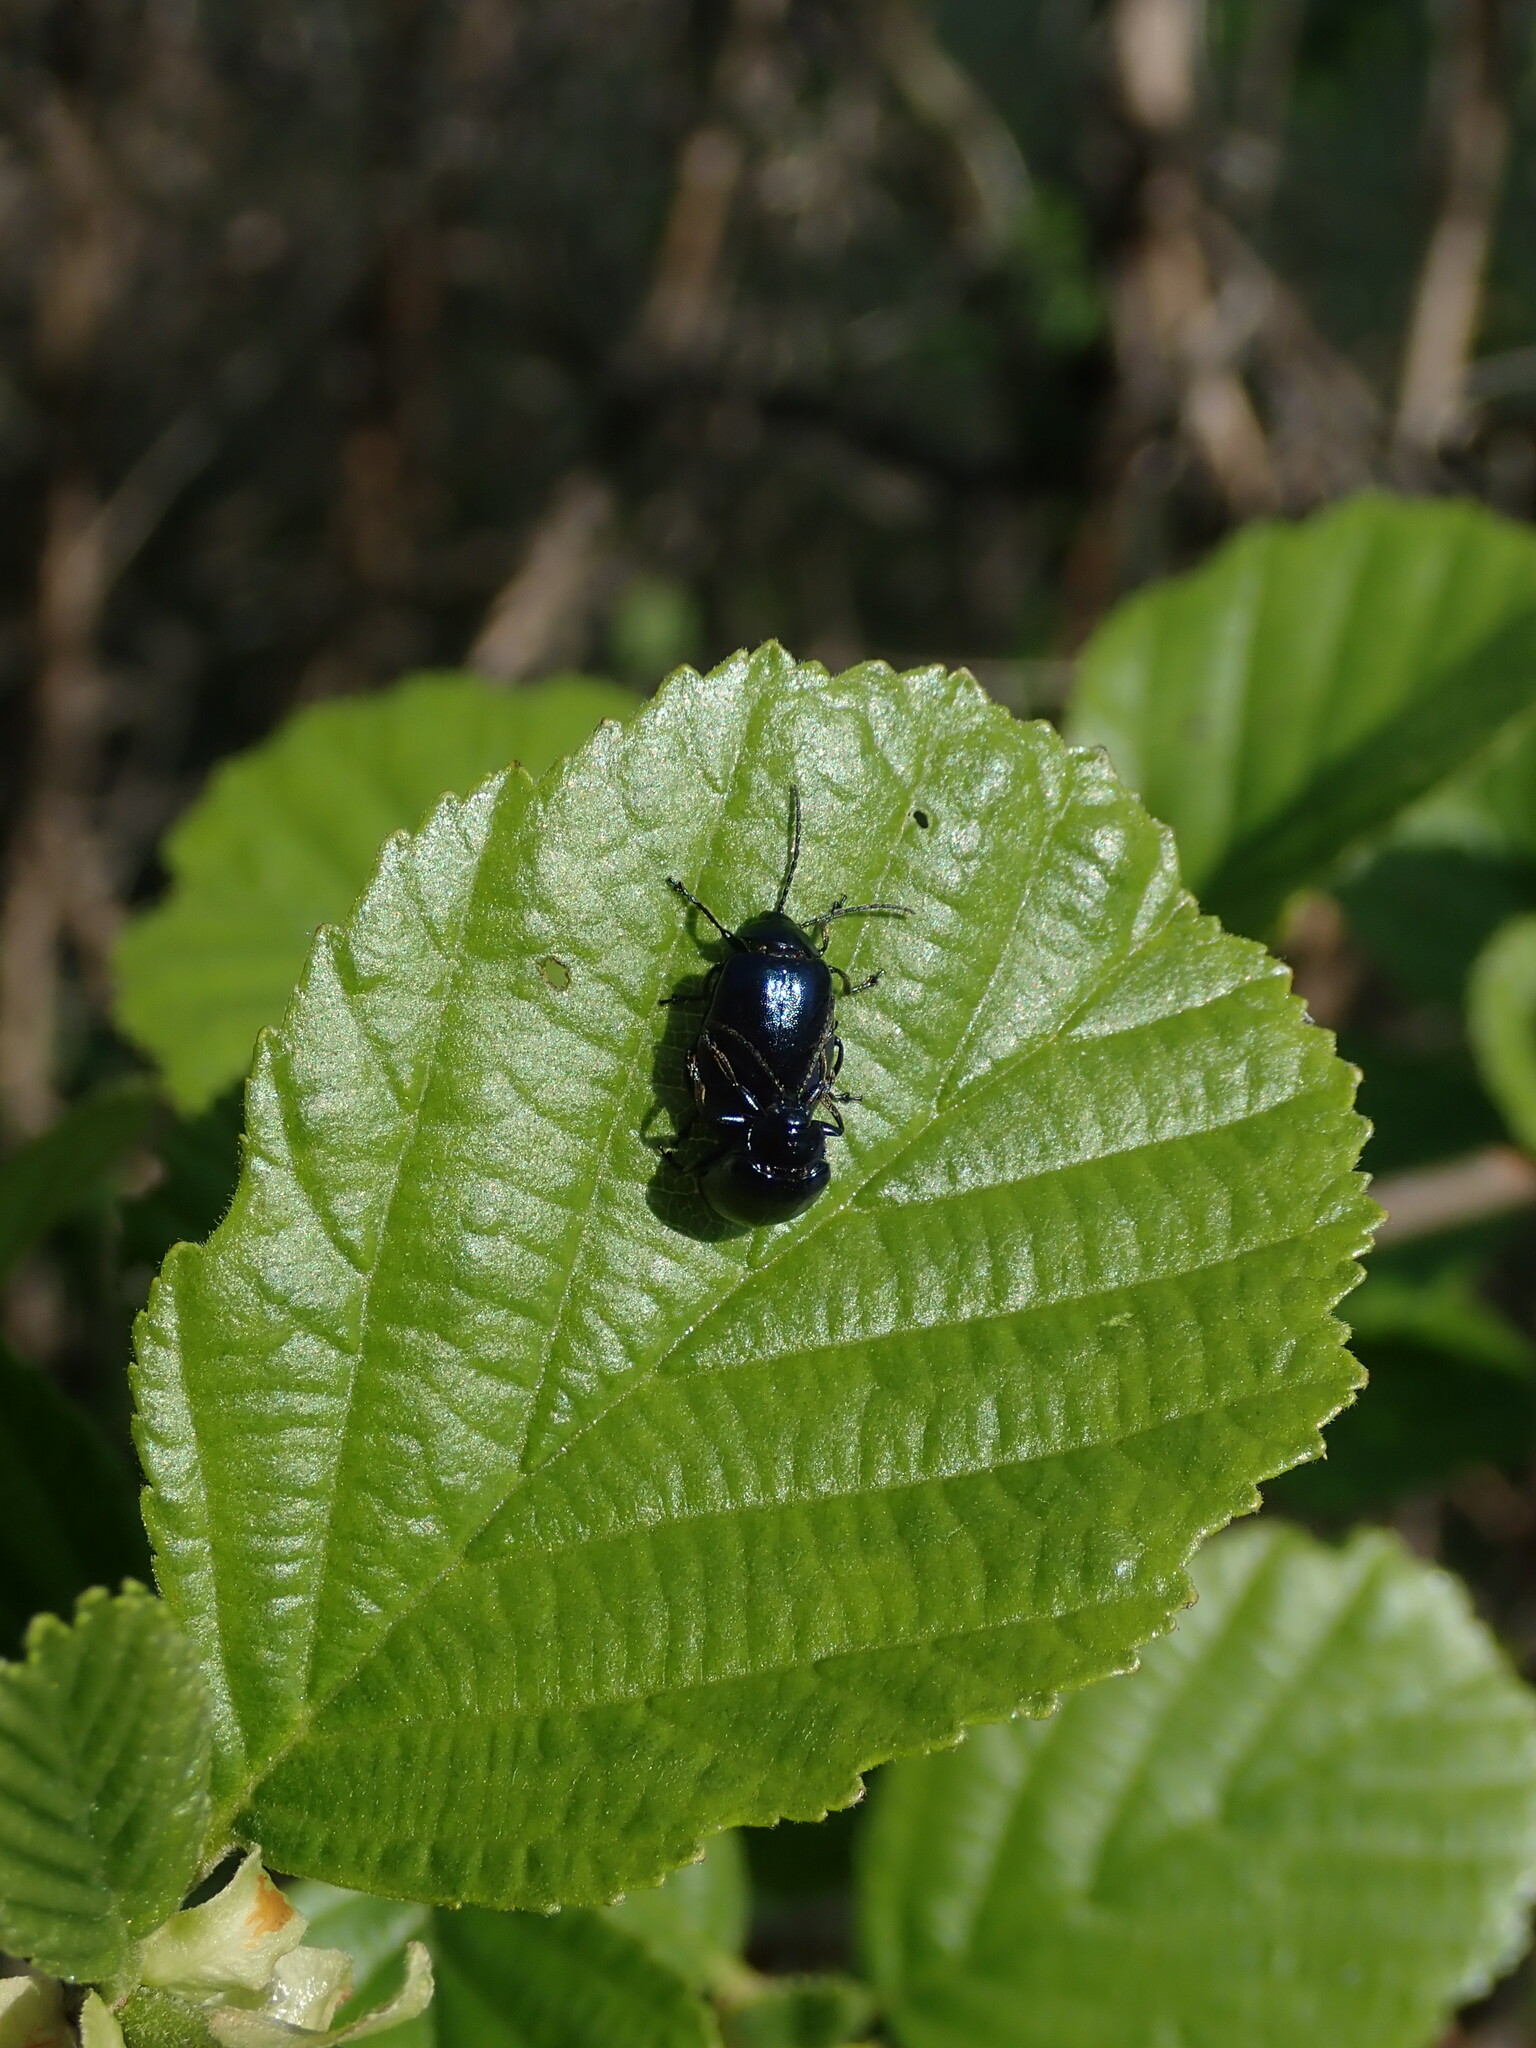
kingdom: Animalia
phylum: Arthropoda
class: Insecta
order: Coleoptera
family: Chrysomelidae
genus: Agelastica
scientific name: Agelastica alni
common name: Alder leaf beetle
